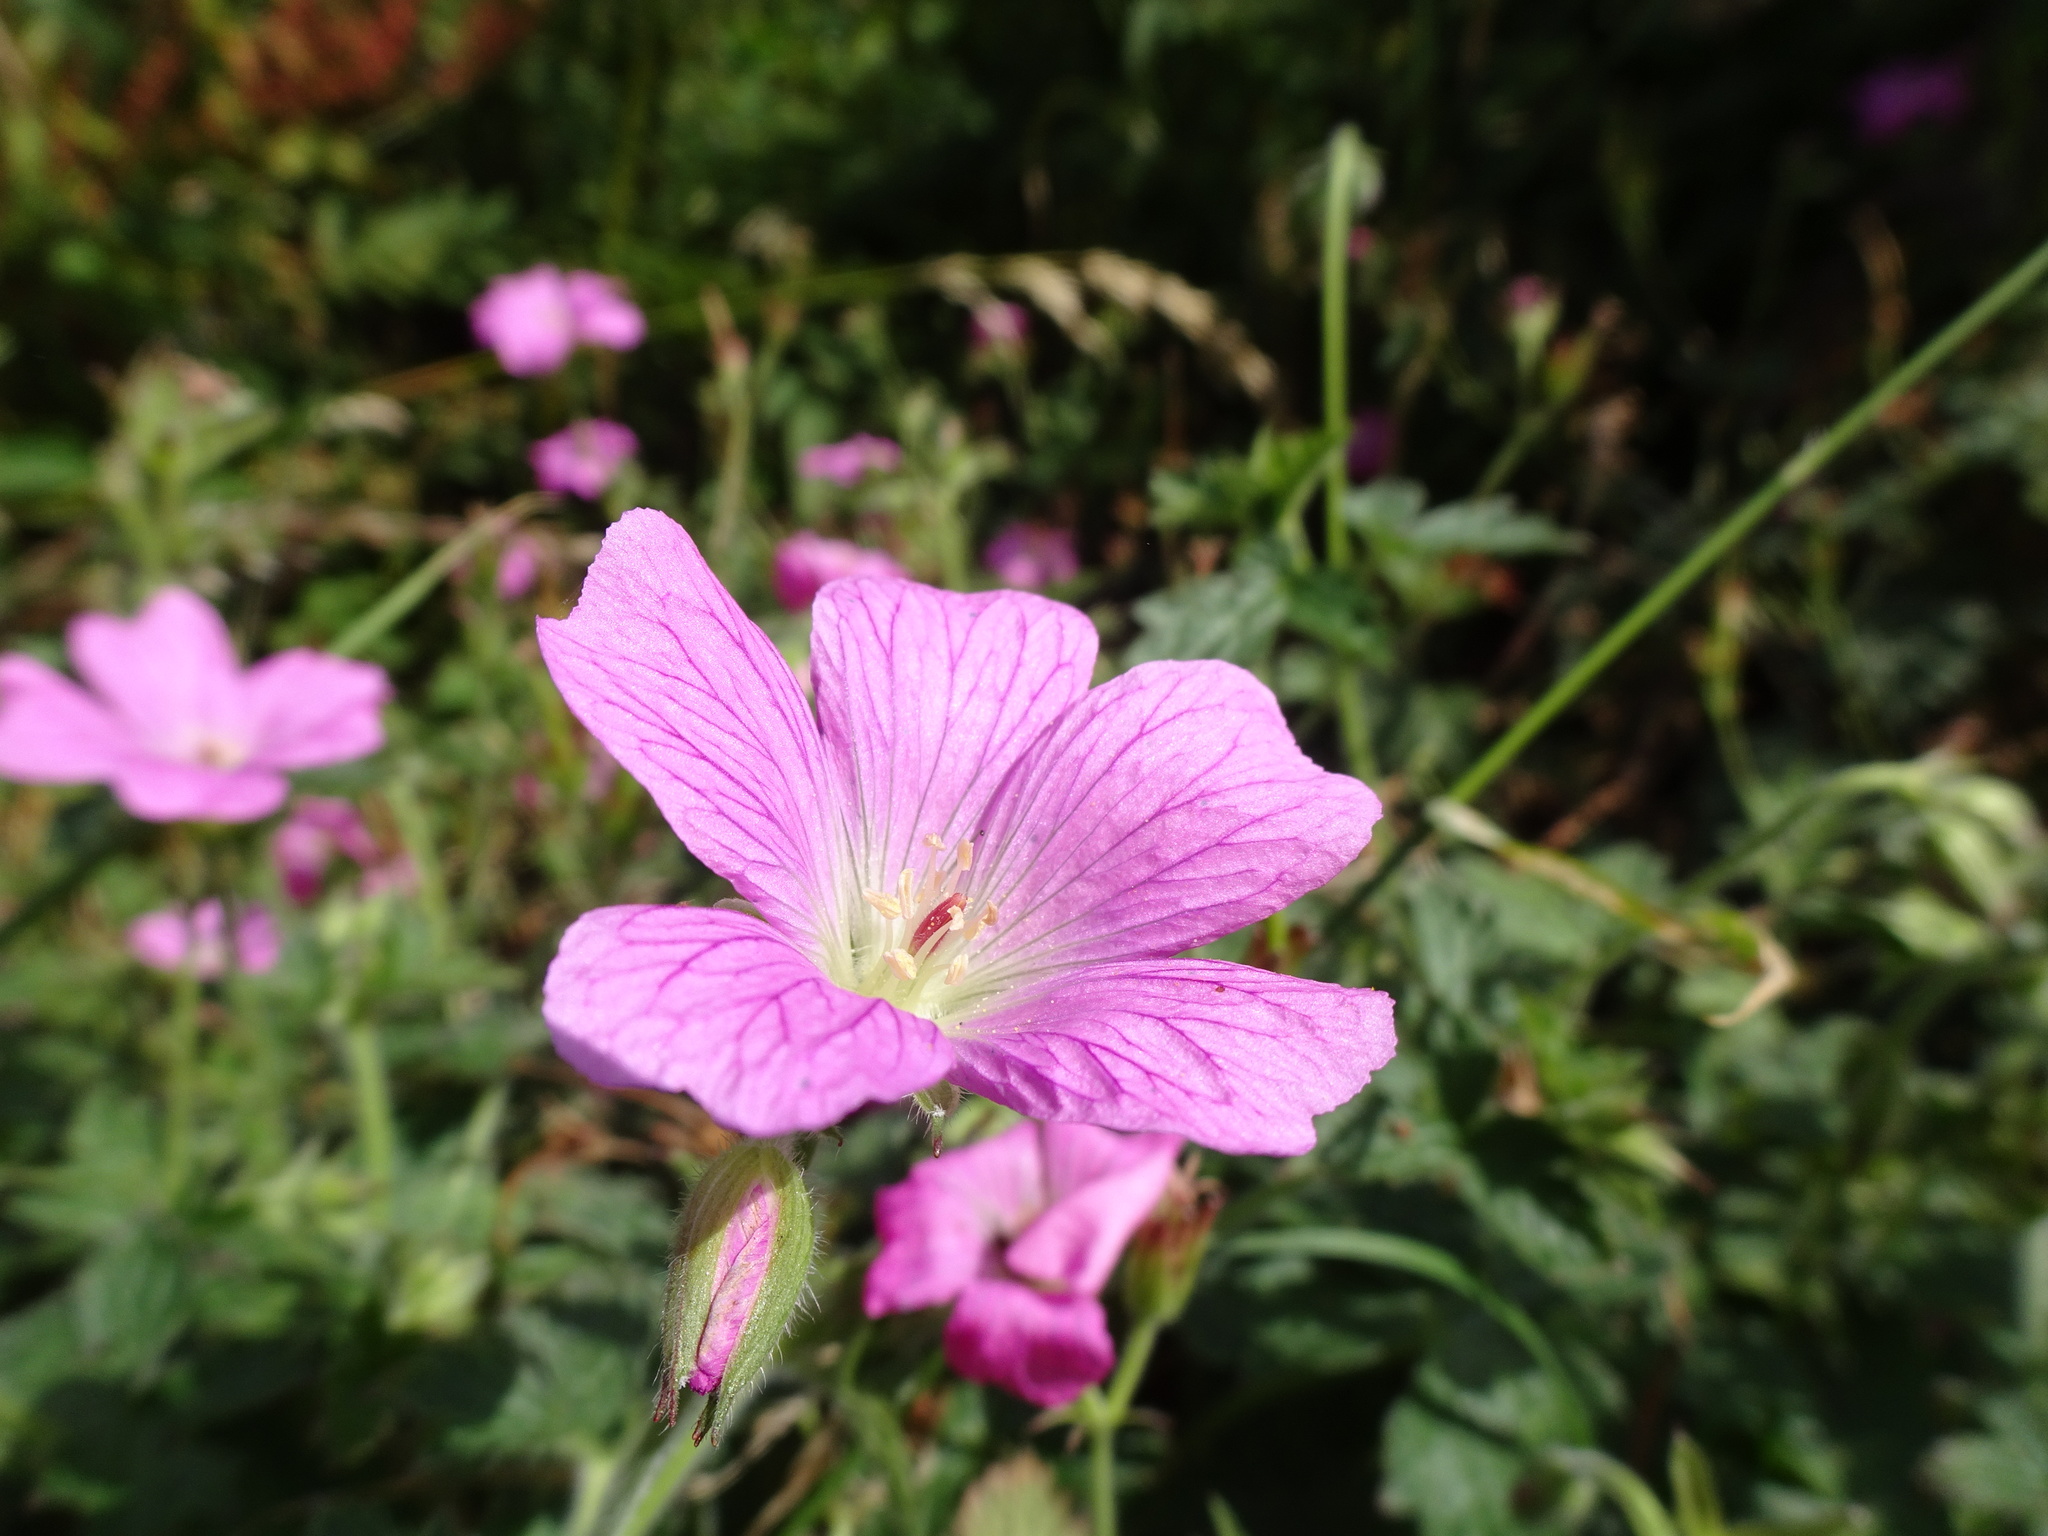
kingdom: Plantae
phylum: Tracheophyta
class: Magnoliopsida
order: Geraniales
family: Geraniaceae
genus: Geranium
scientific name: Geranium oxonianum
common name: Druce's crane's-bill
